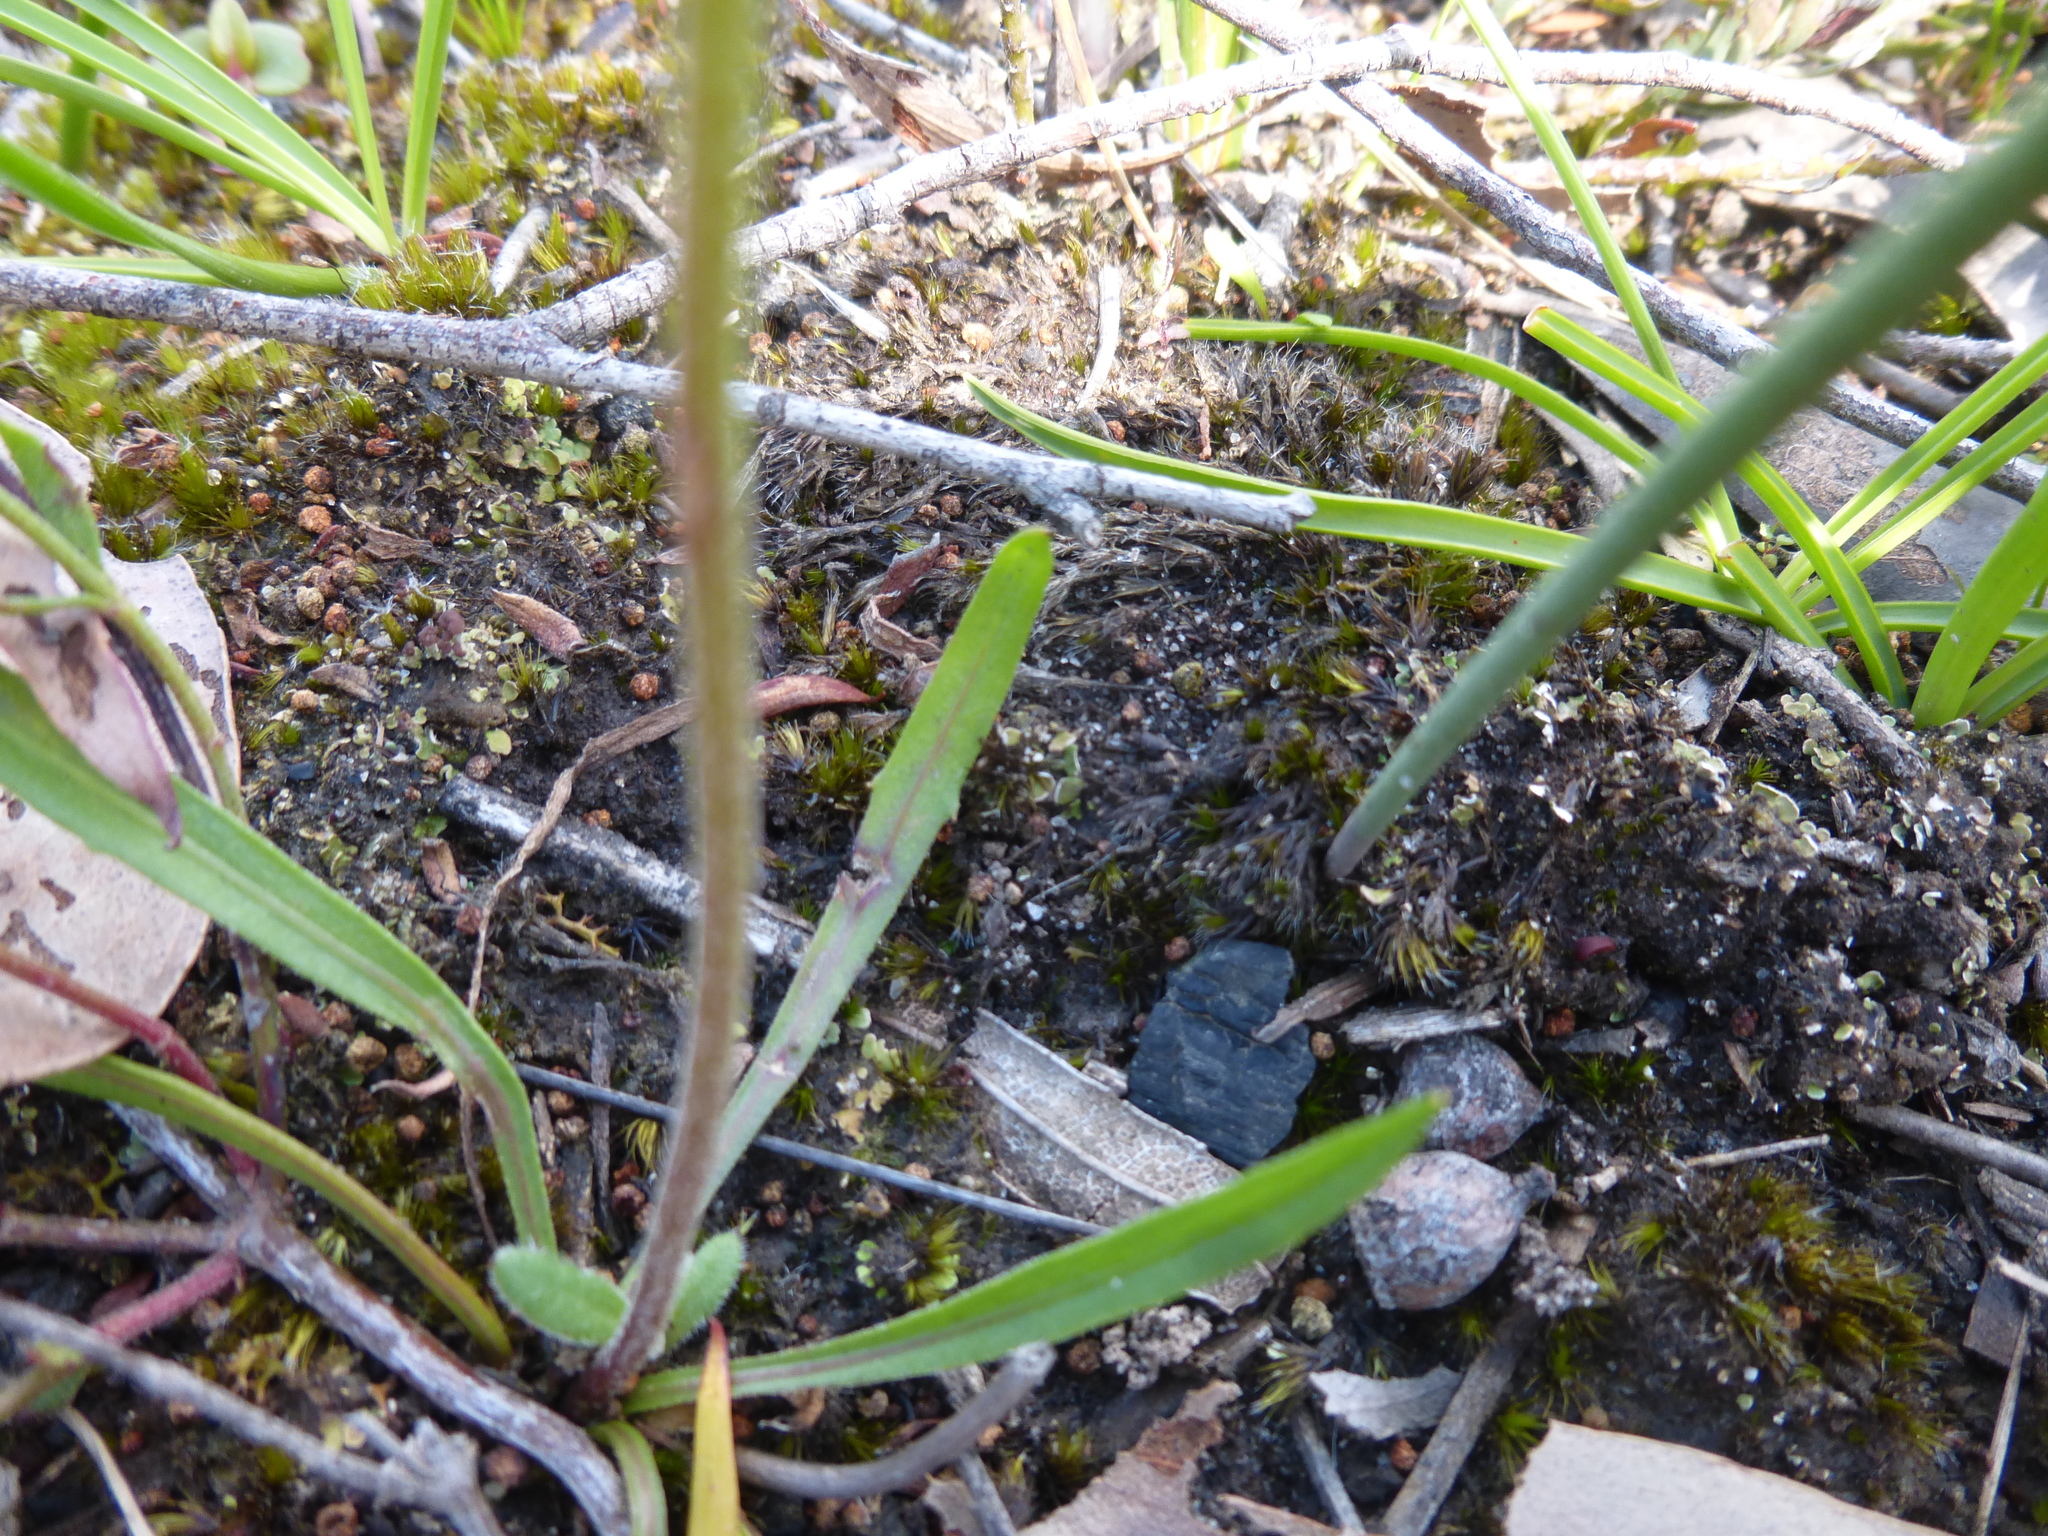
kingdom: Plantae
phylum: Tracheophyta
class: Magnoliopsida
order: Asterales
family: Asteraceae
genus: Microseris
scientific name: Microseris lanceolata
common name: Yam daisy
